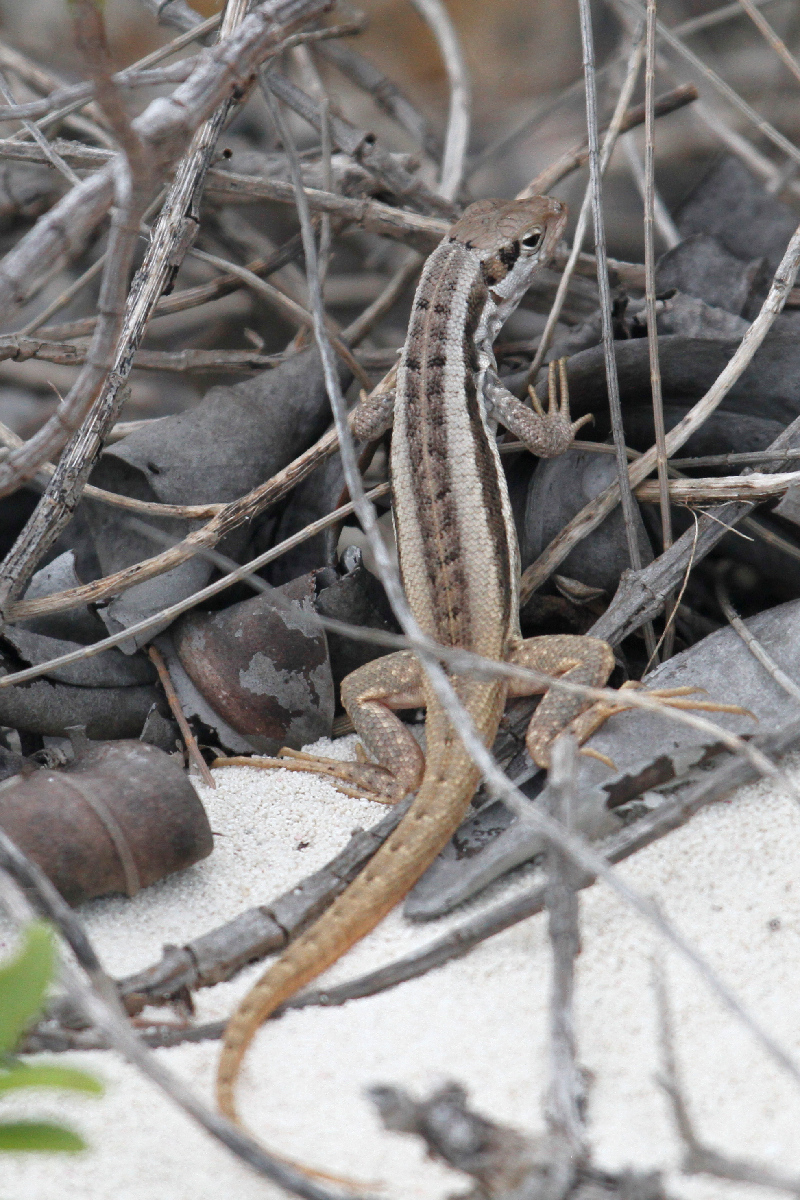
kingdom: Animalia
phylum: Chordata
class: Squamata
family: Leiocephalidae
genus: Leiocephalus
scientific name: Leiocephalus loxogrammus
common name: Rum cay curlytail lizard
